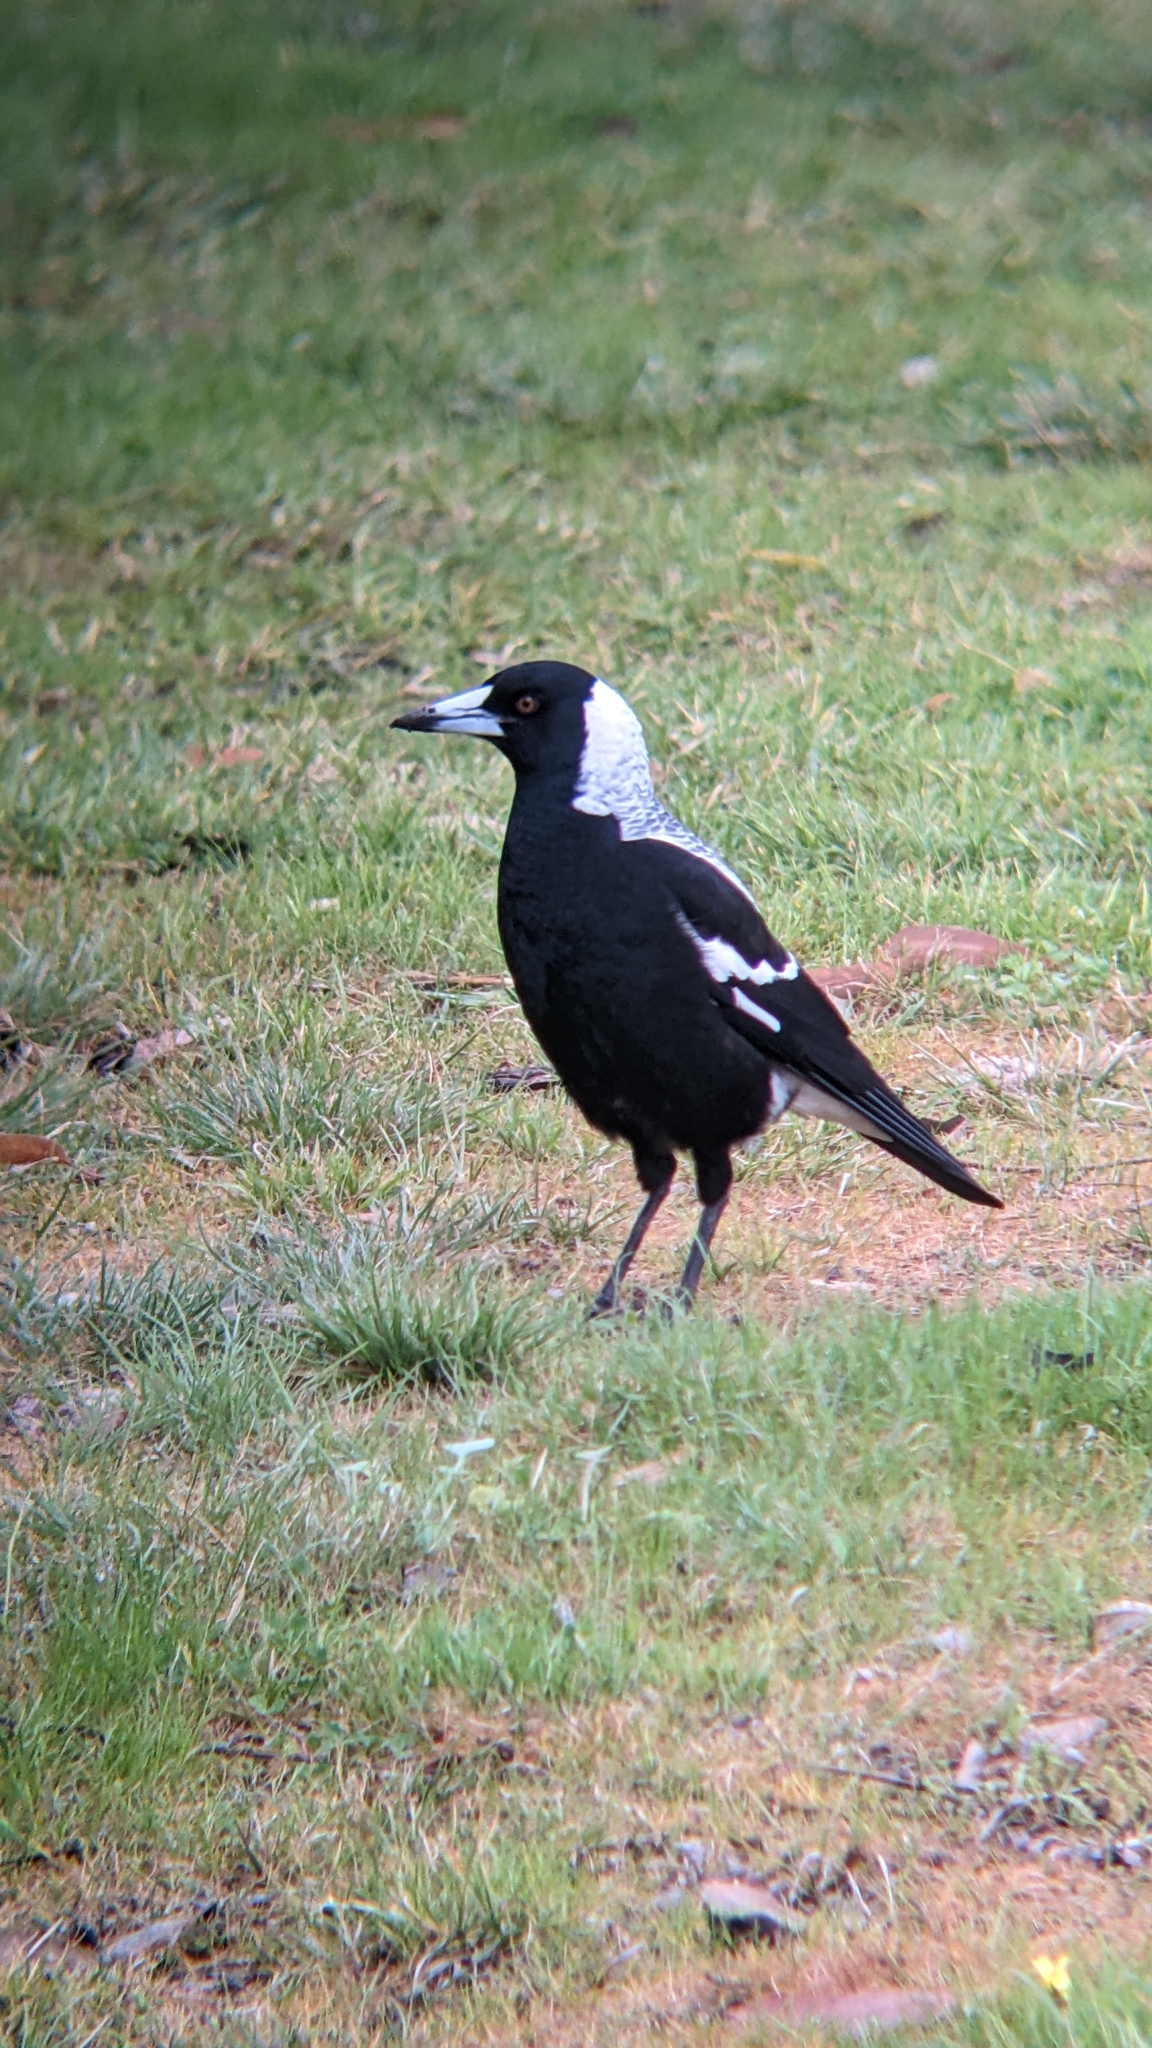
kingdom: Animalia
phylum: Chordata
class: Aves
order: Passeriformes
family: Cracticidae
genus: Gymnorhina
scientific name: Gymnorhina tibicen
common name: Australian magpie
